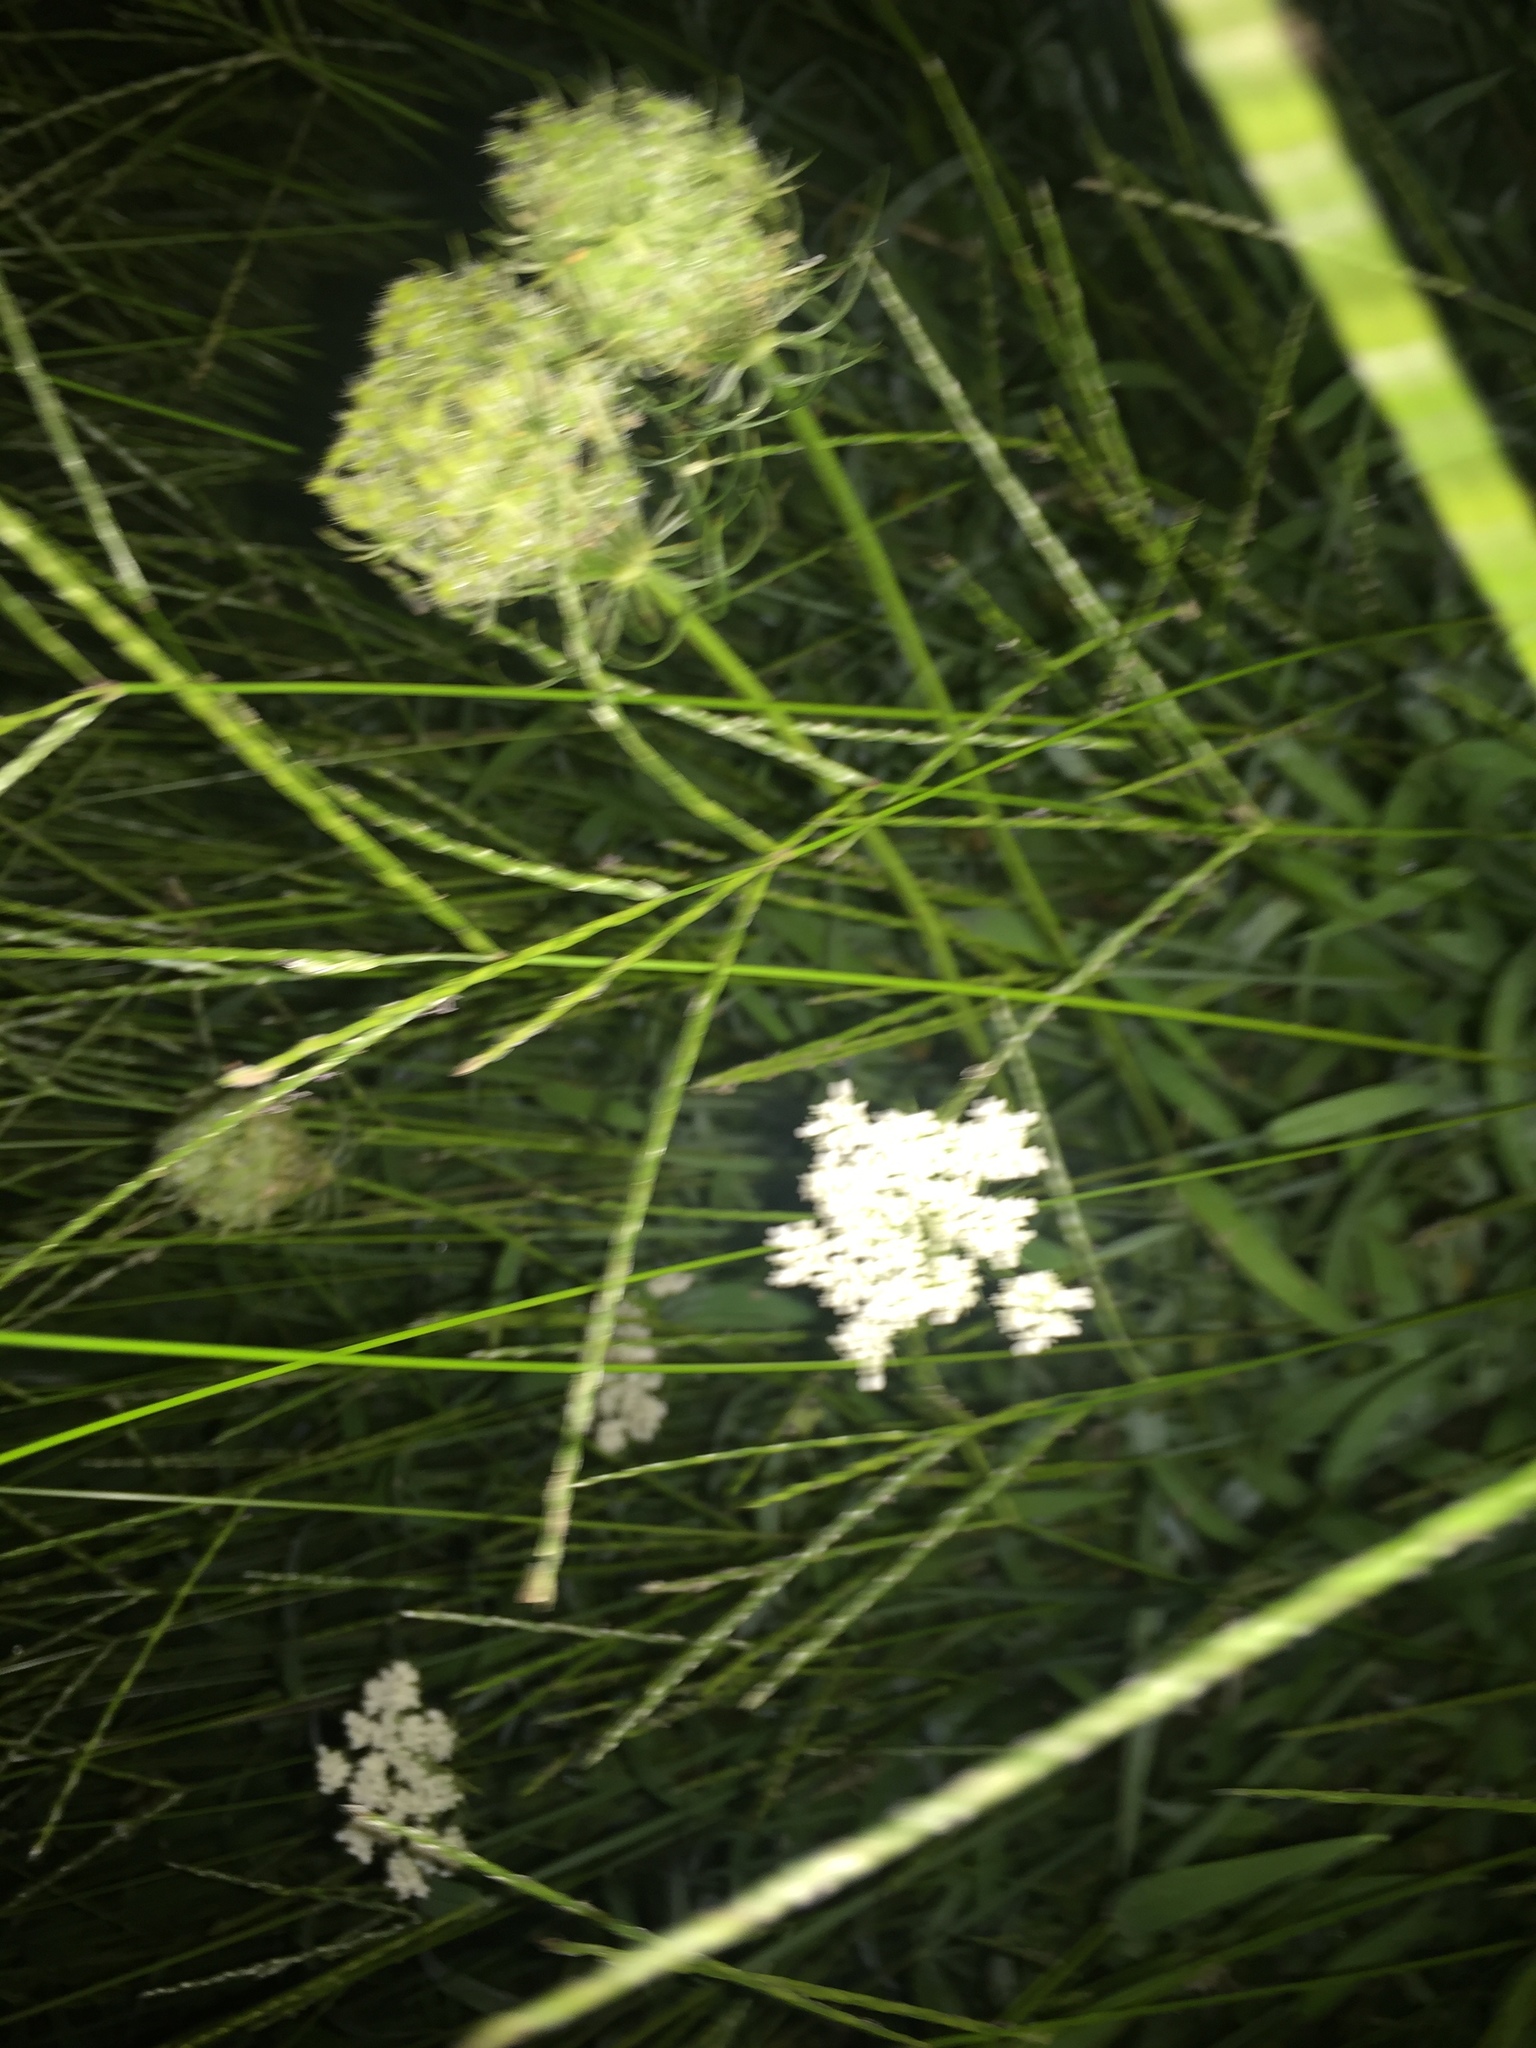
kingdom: Plantae
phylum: Tracheophyta
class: Magnoliopsida
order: Apiales
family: Apiaceae
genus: Daucus
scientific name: Daucus carota
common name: Wild carrot
